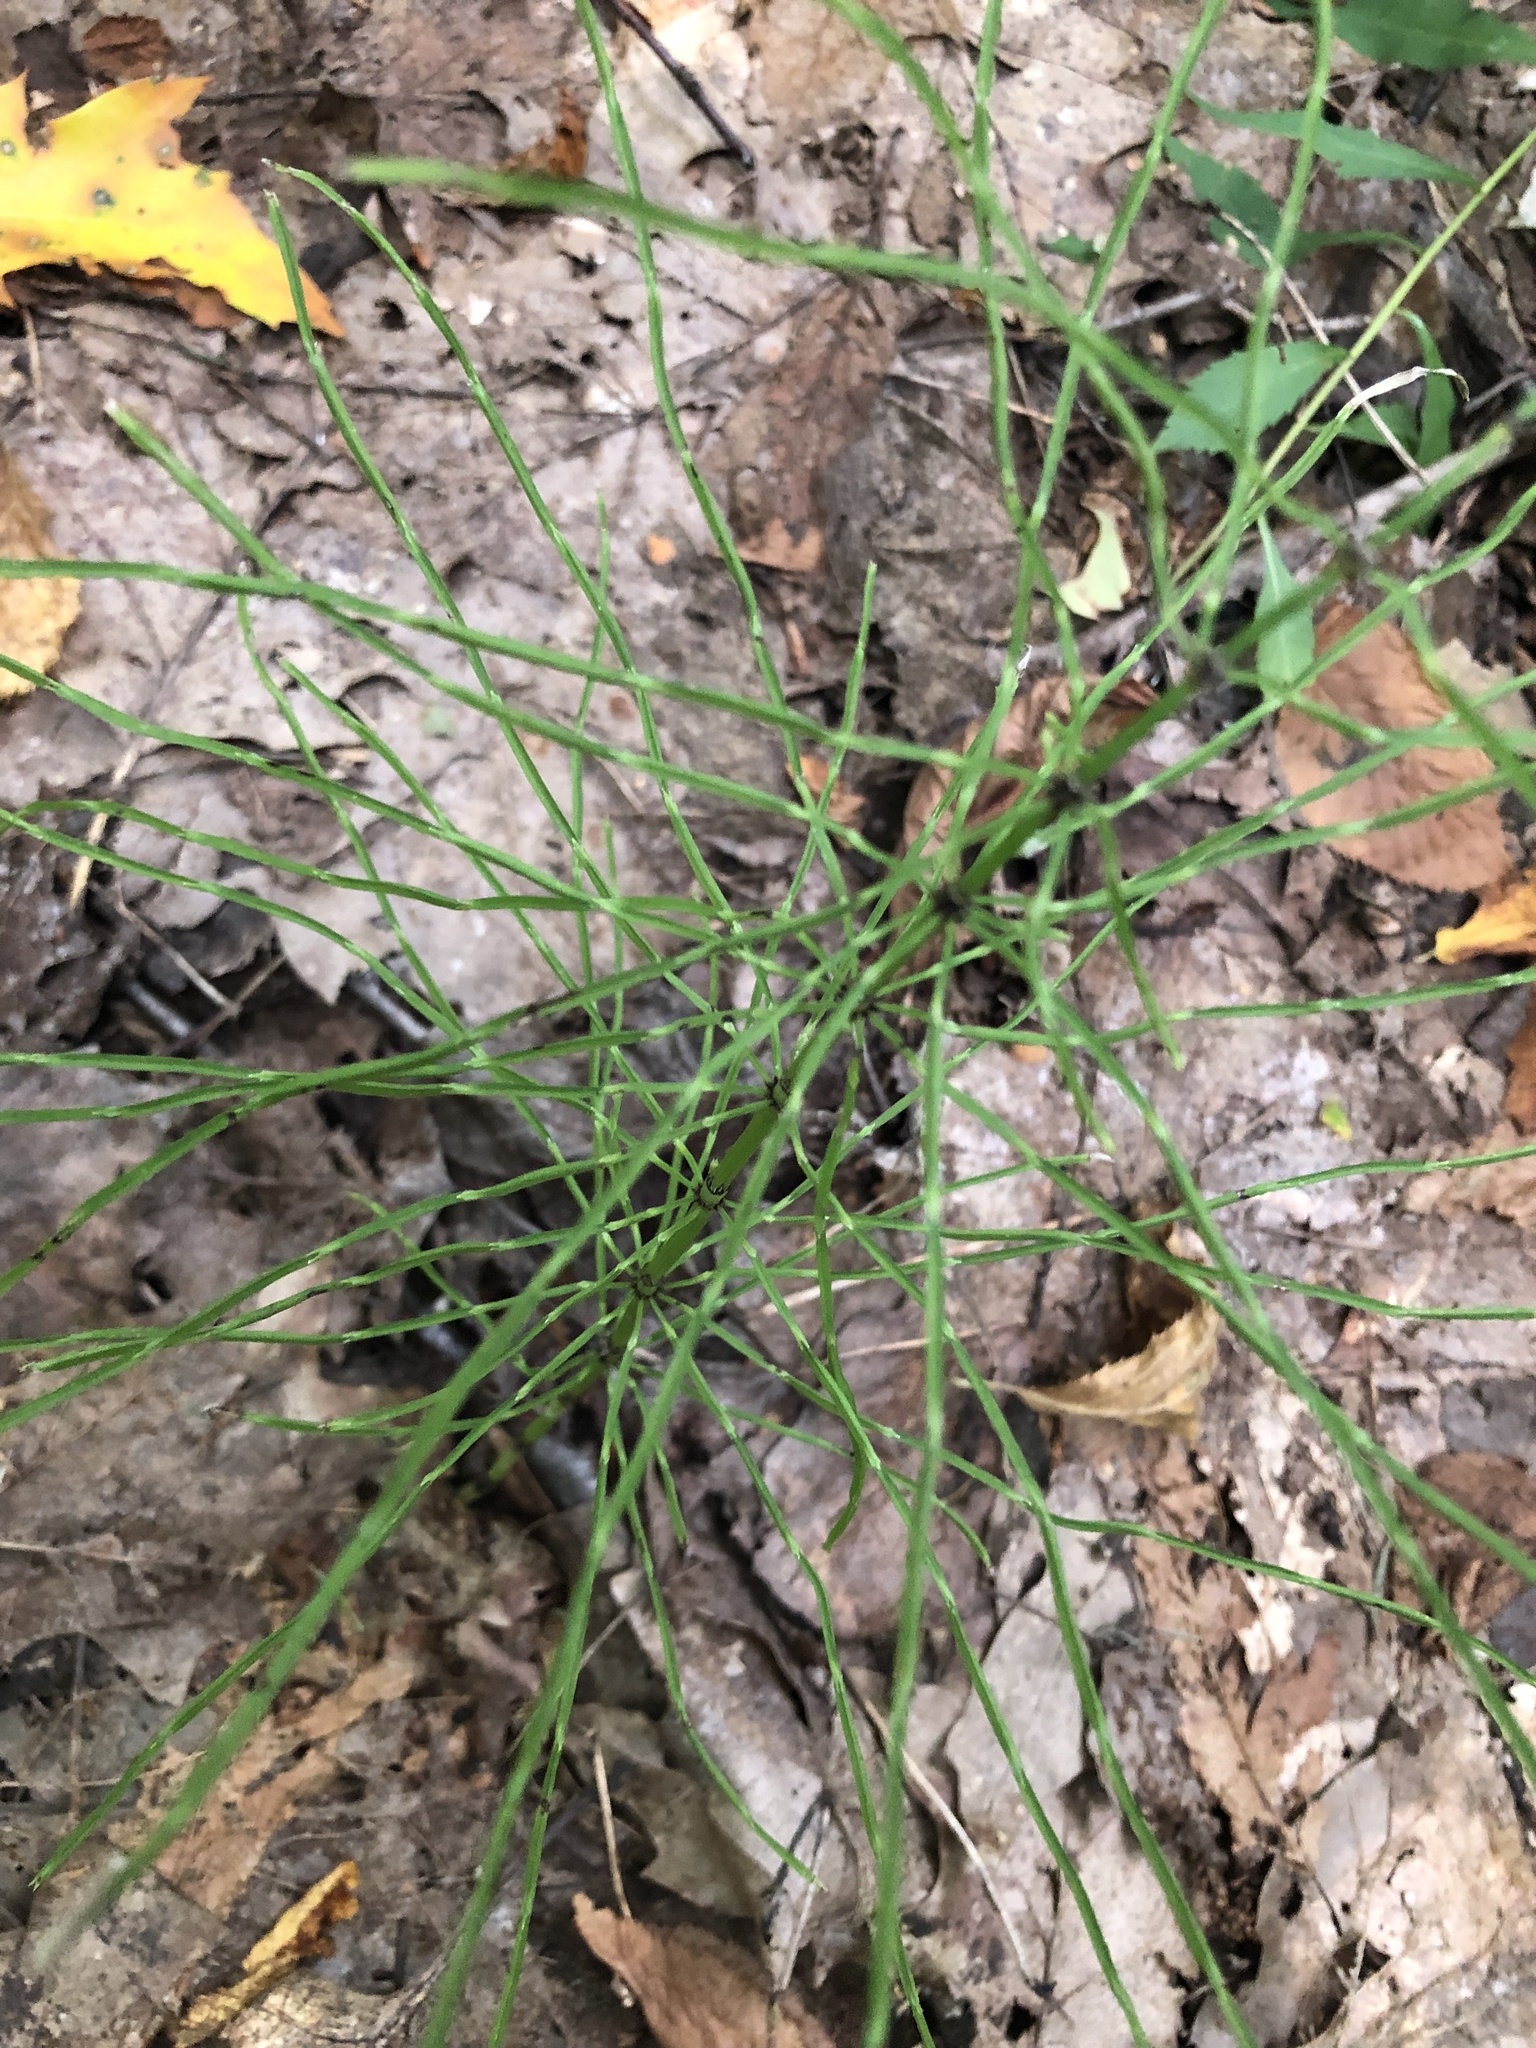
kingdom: Plantae
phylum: Tracheophyta
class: Polypodiopsida
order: Equisetales
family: Equisetaceae
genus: Equisetum
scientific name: Equisetum arvense
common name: Field horsetail
